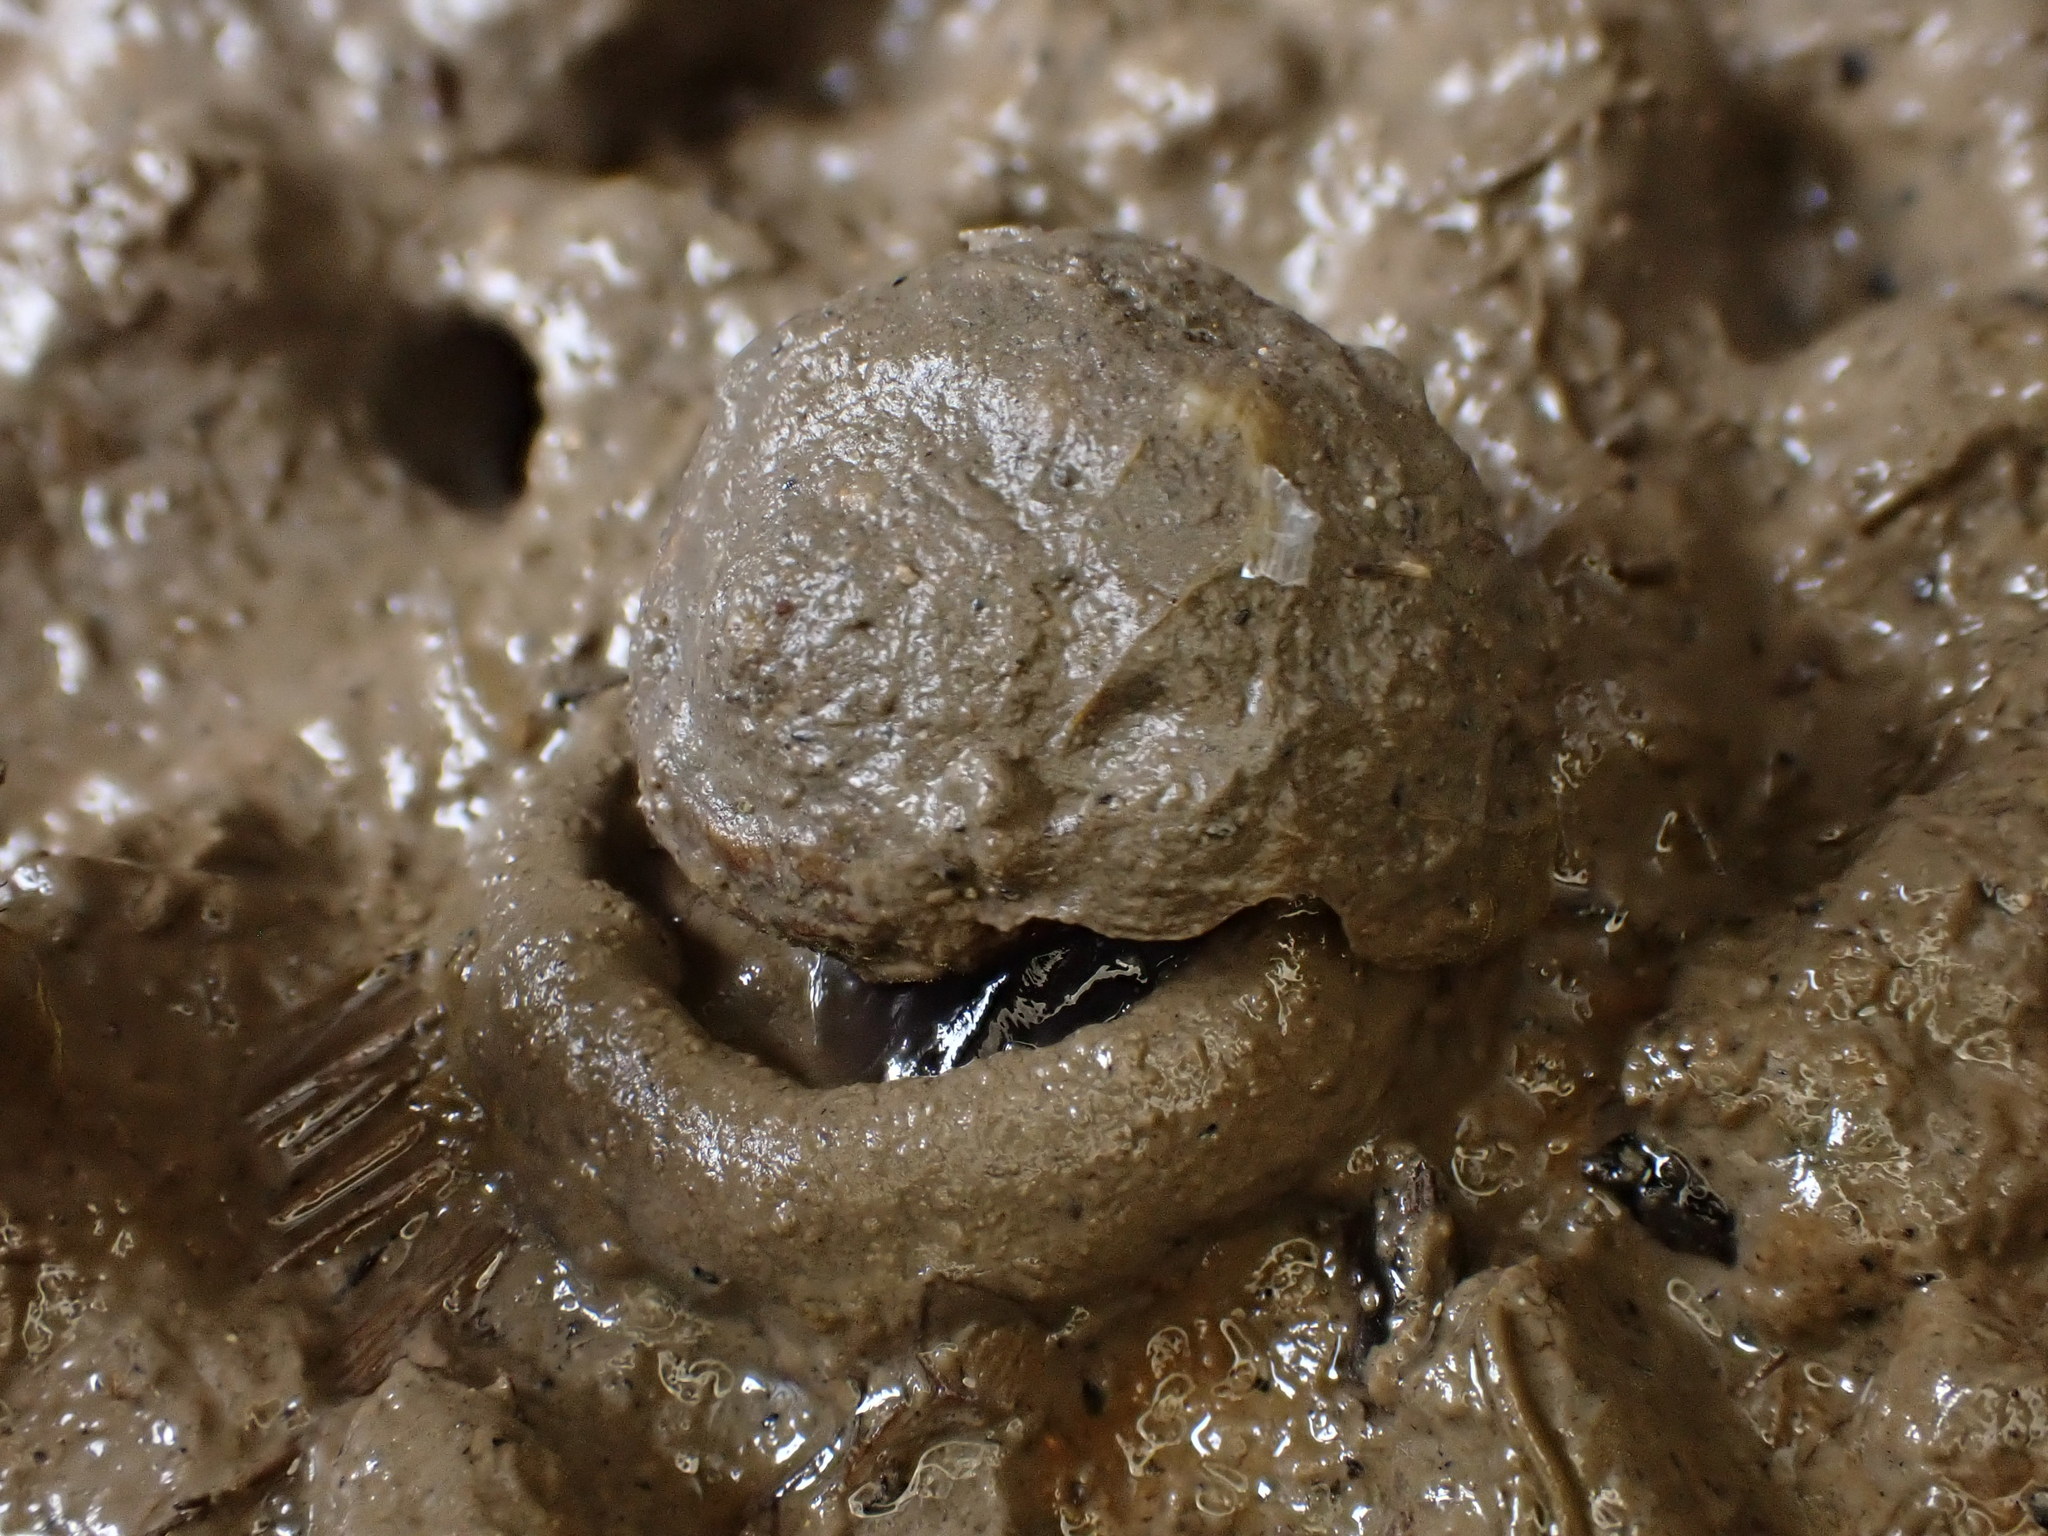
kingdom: Animalia
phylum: Mollusca
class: Gastropoda
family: Amphibolidae
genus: Amphibola
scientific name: Amphibola crenata
